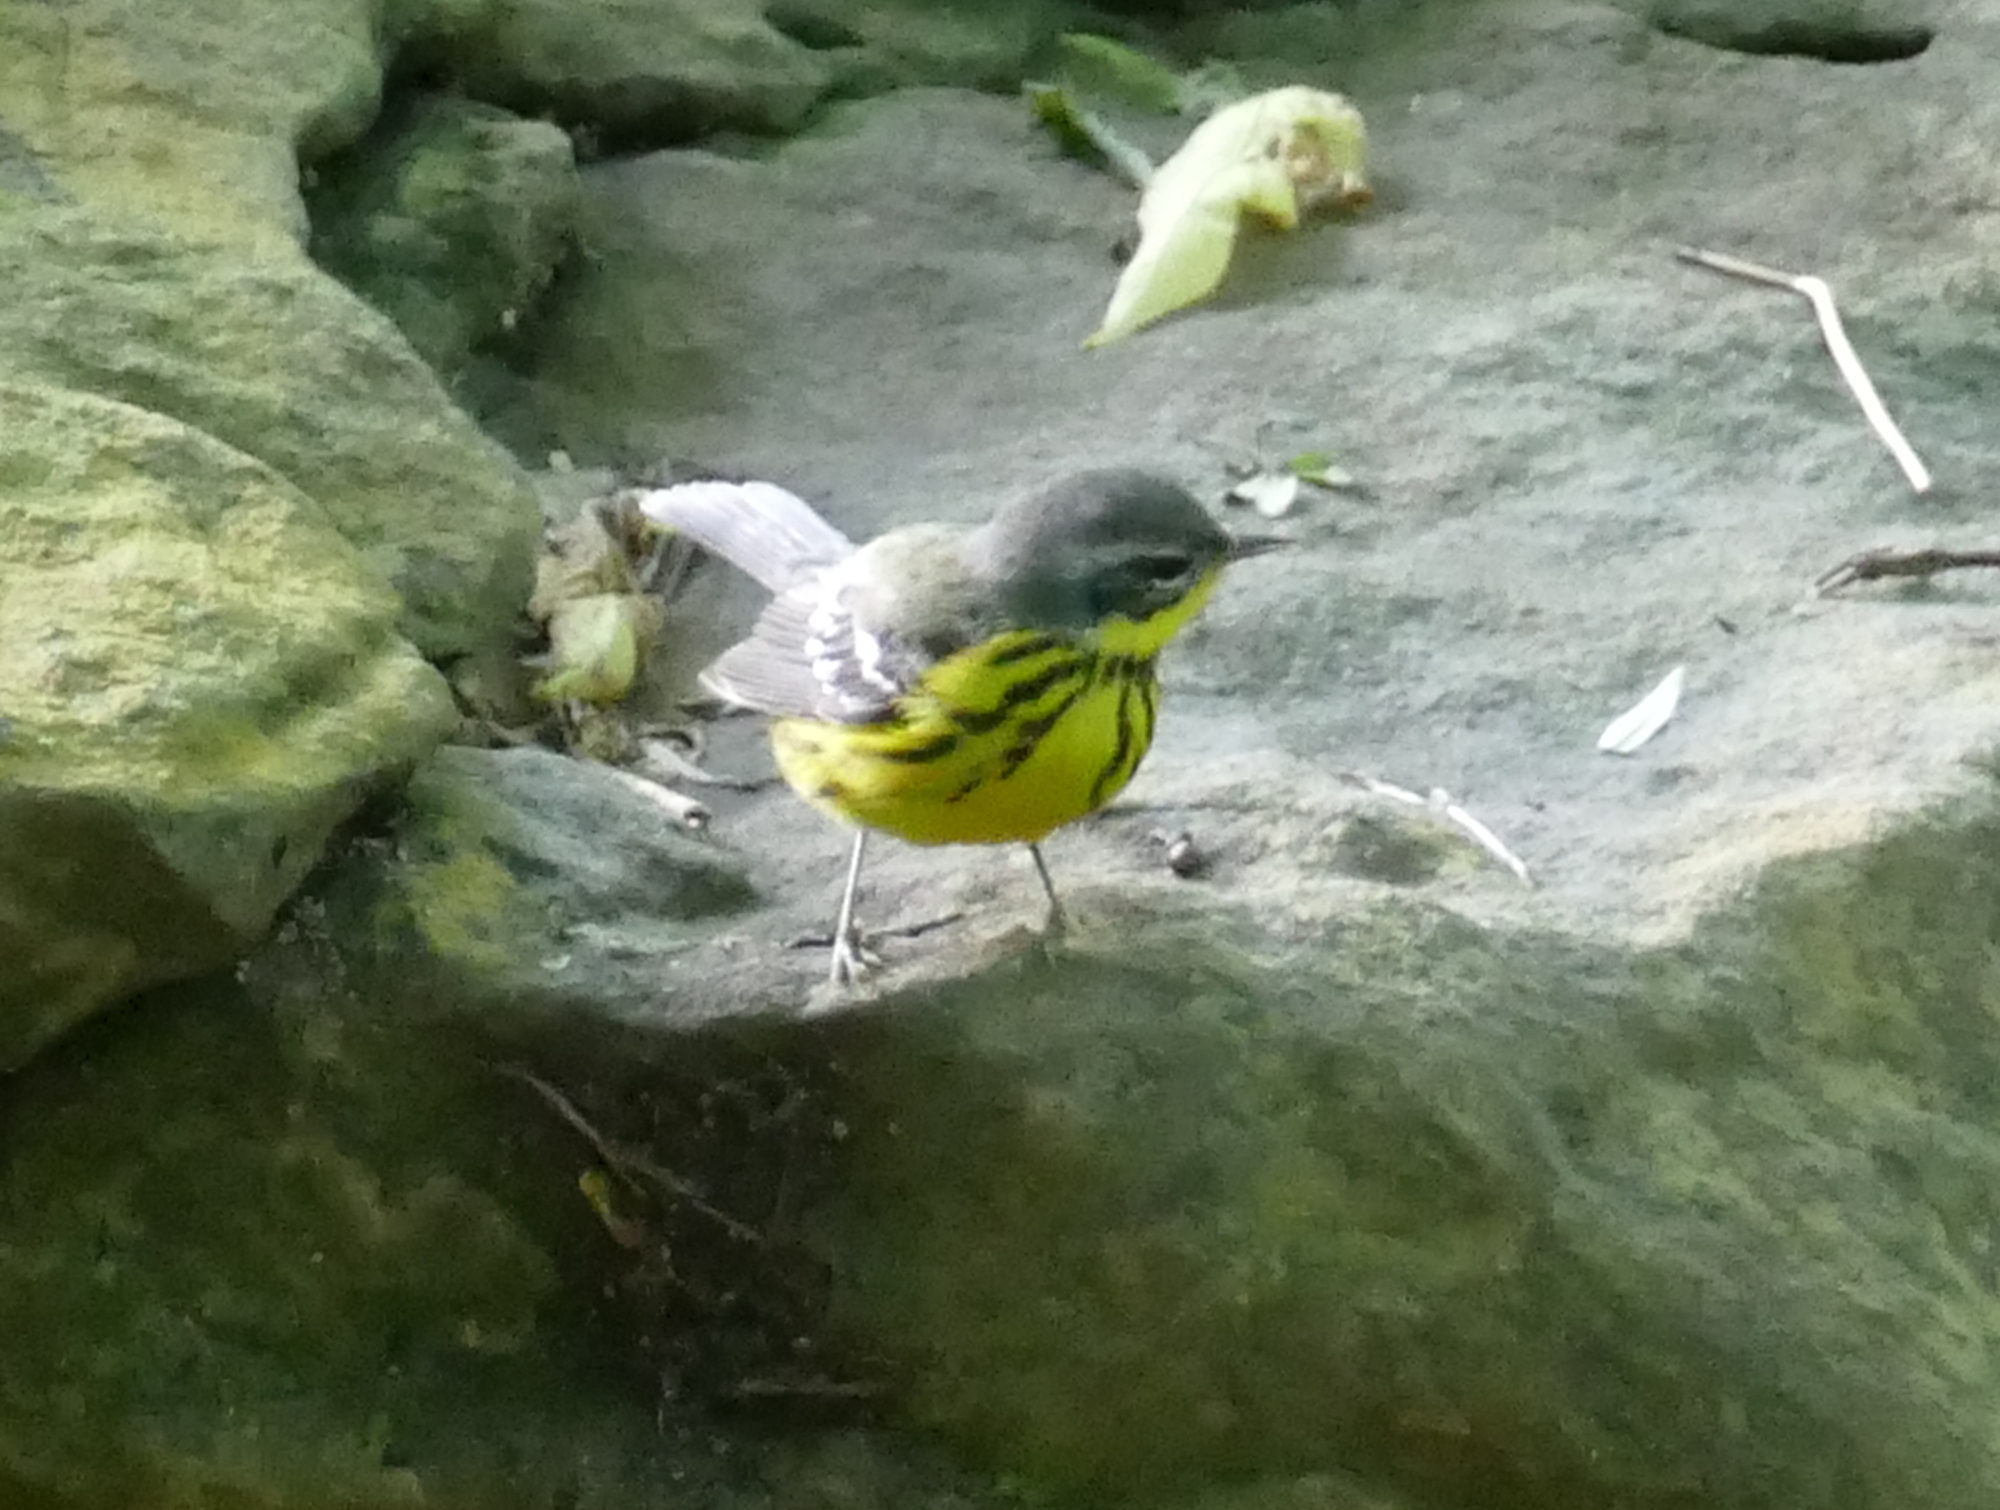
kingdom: Animalia
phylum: Chordata
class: Aves
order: Passeriformes
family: Parulidae
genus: Setophaga
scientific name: Setophaga magnolia
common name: Magnolia warbler
